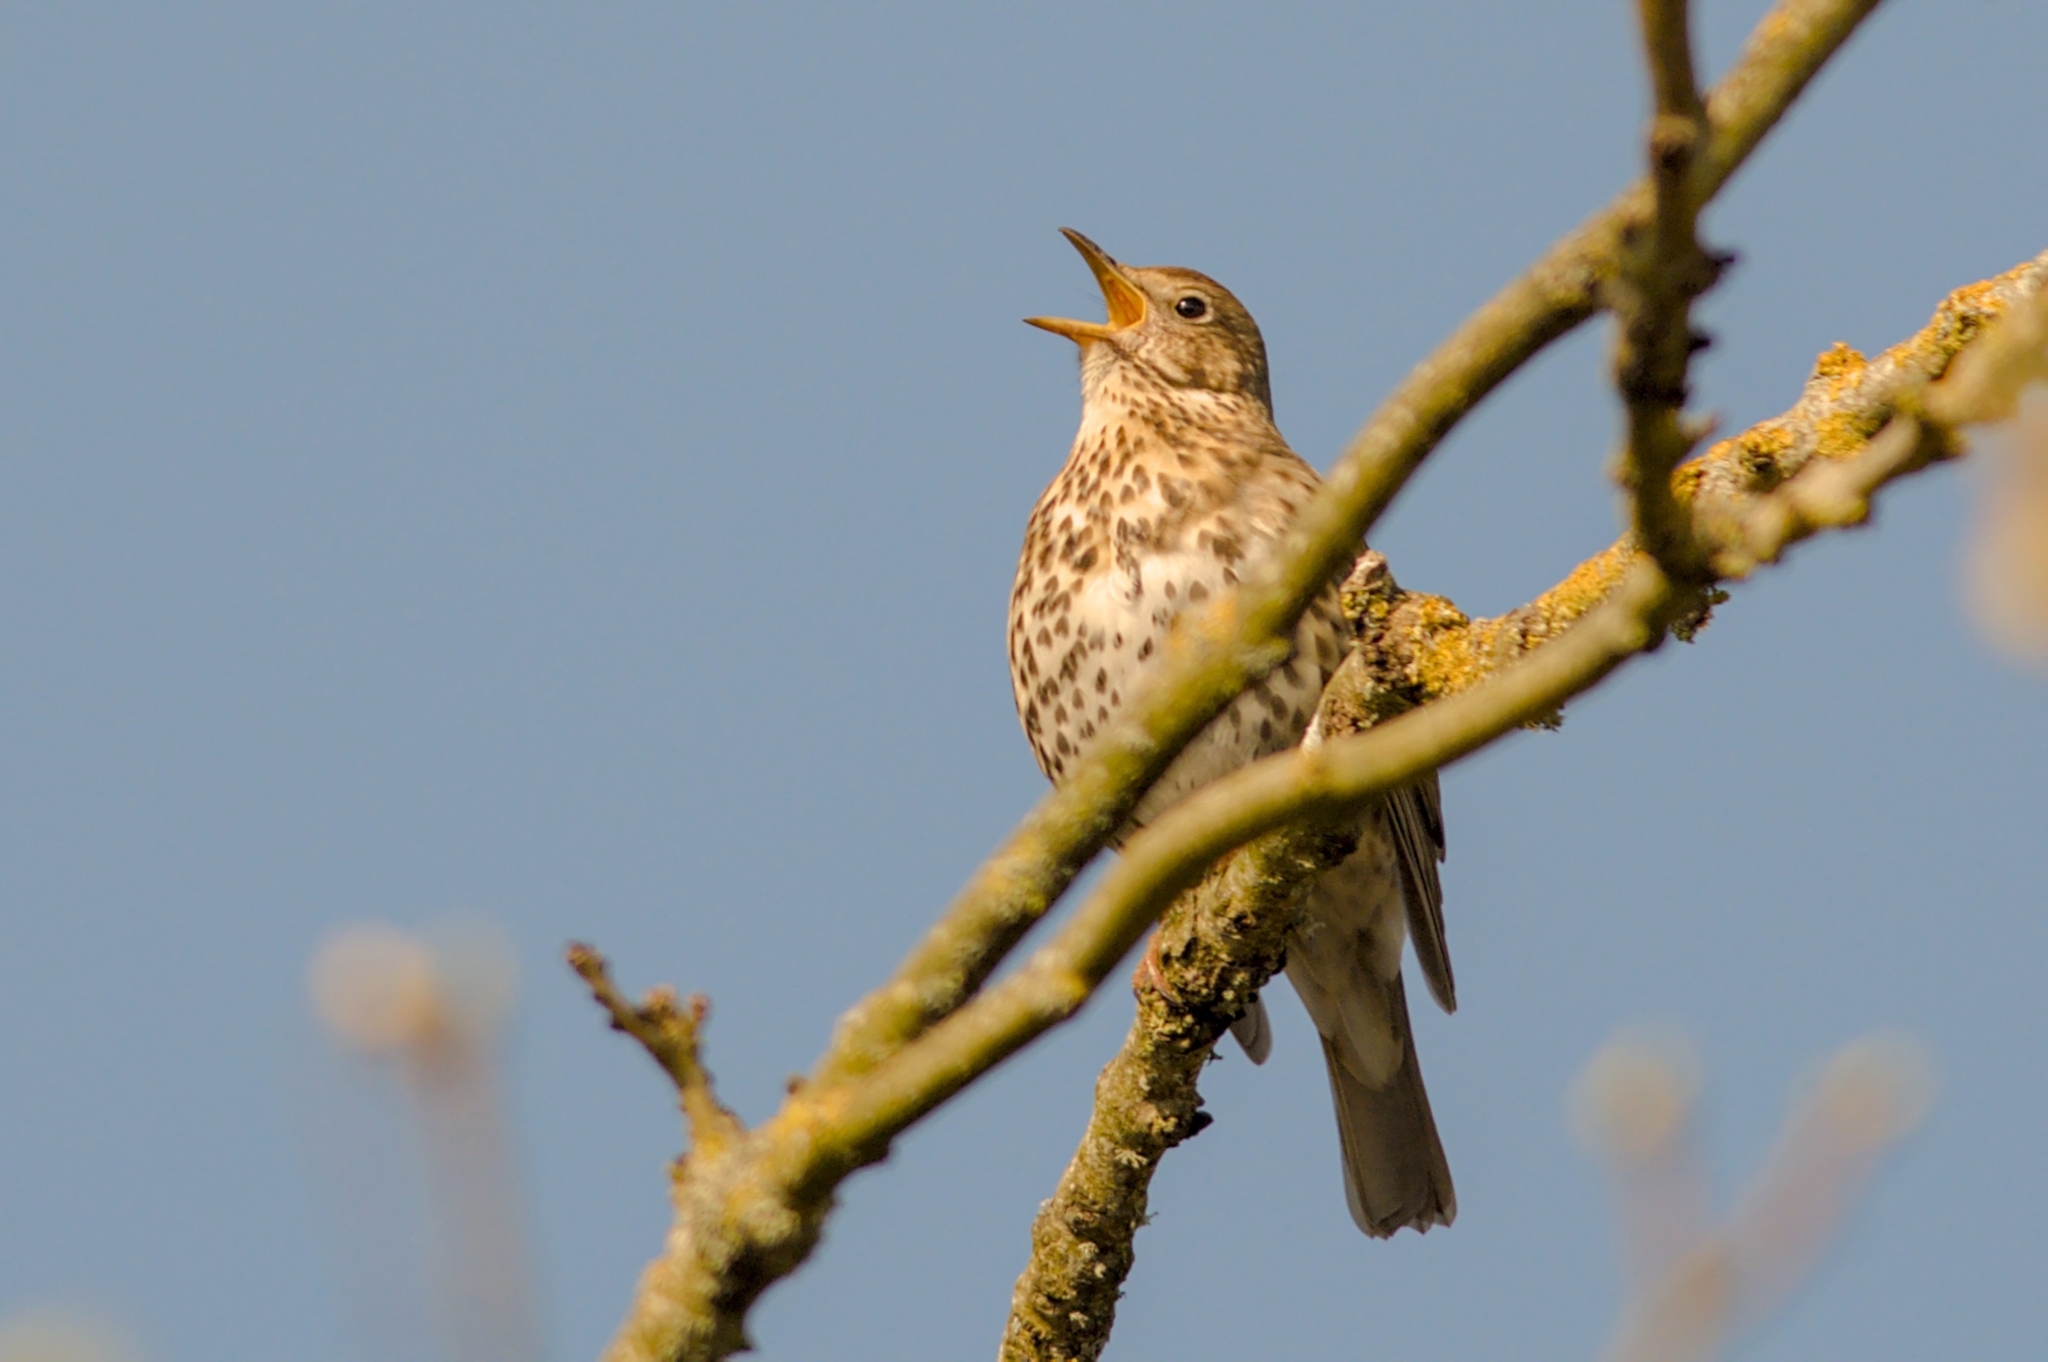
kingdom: Animalia
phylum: Chordata
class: Aves
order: Passeriformes
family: Turdidae
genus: Turdus
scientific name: Turdus philomelos
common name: Song thrush
